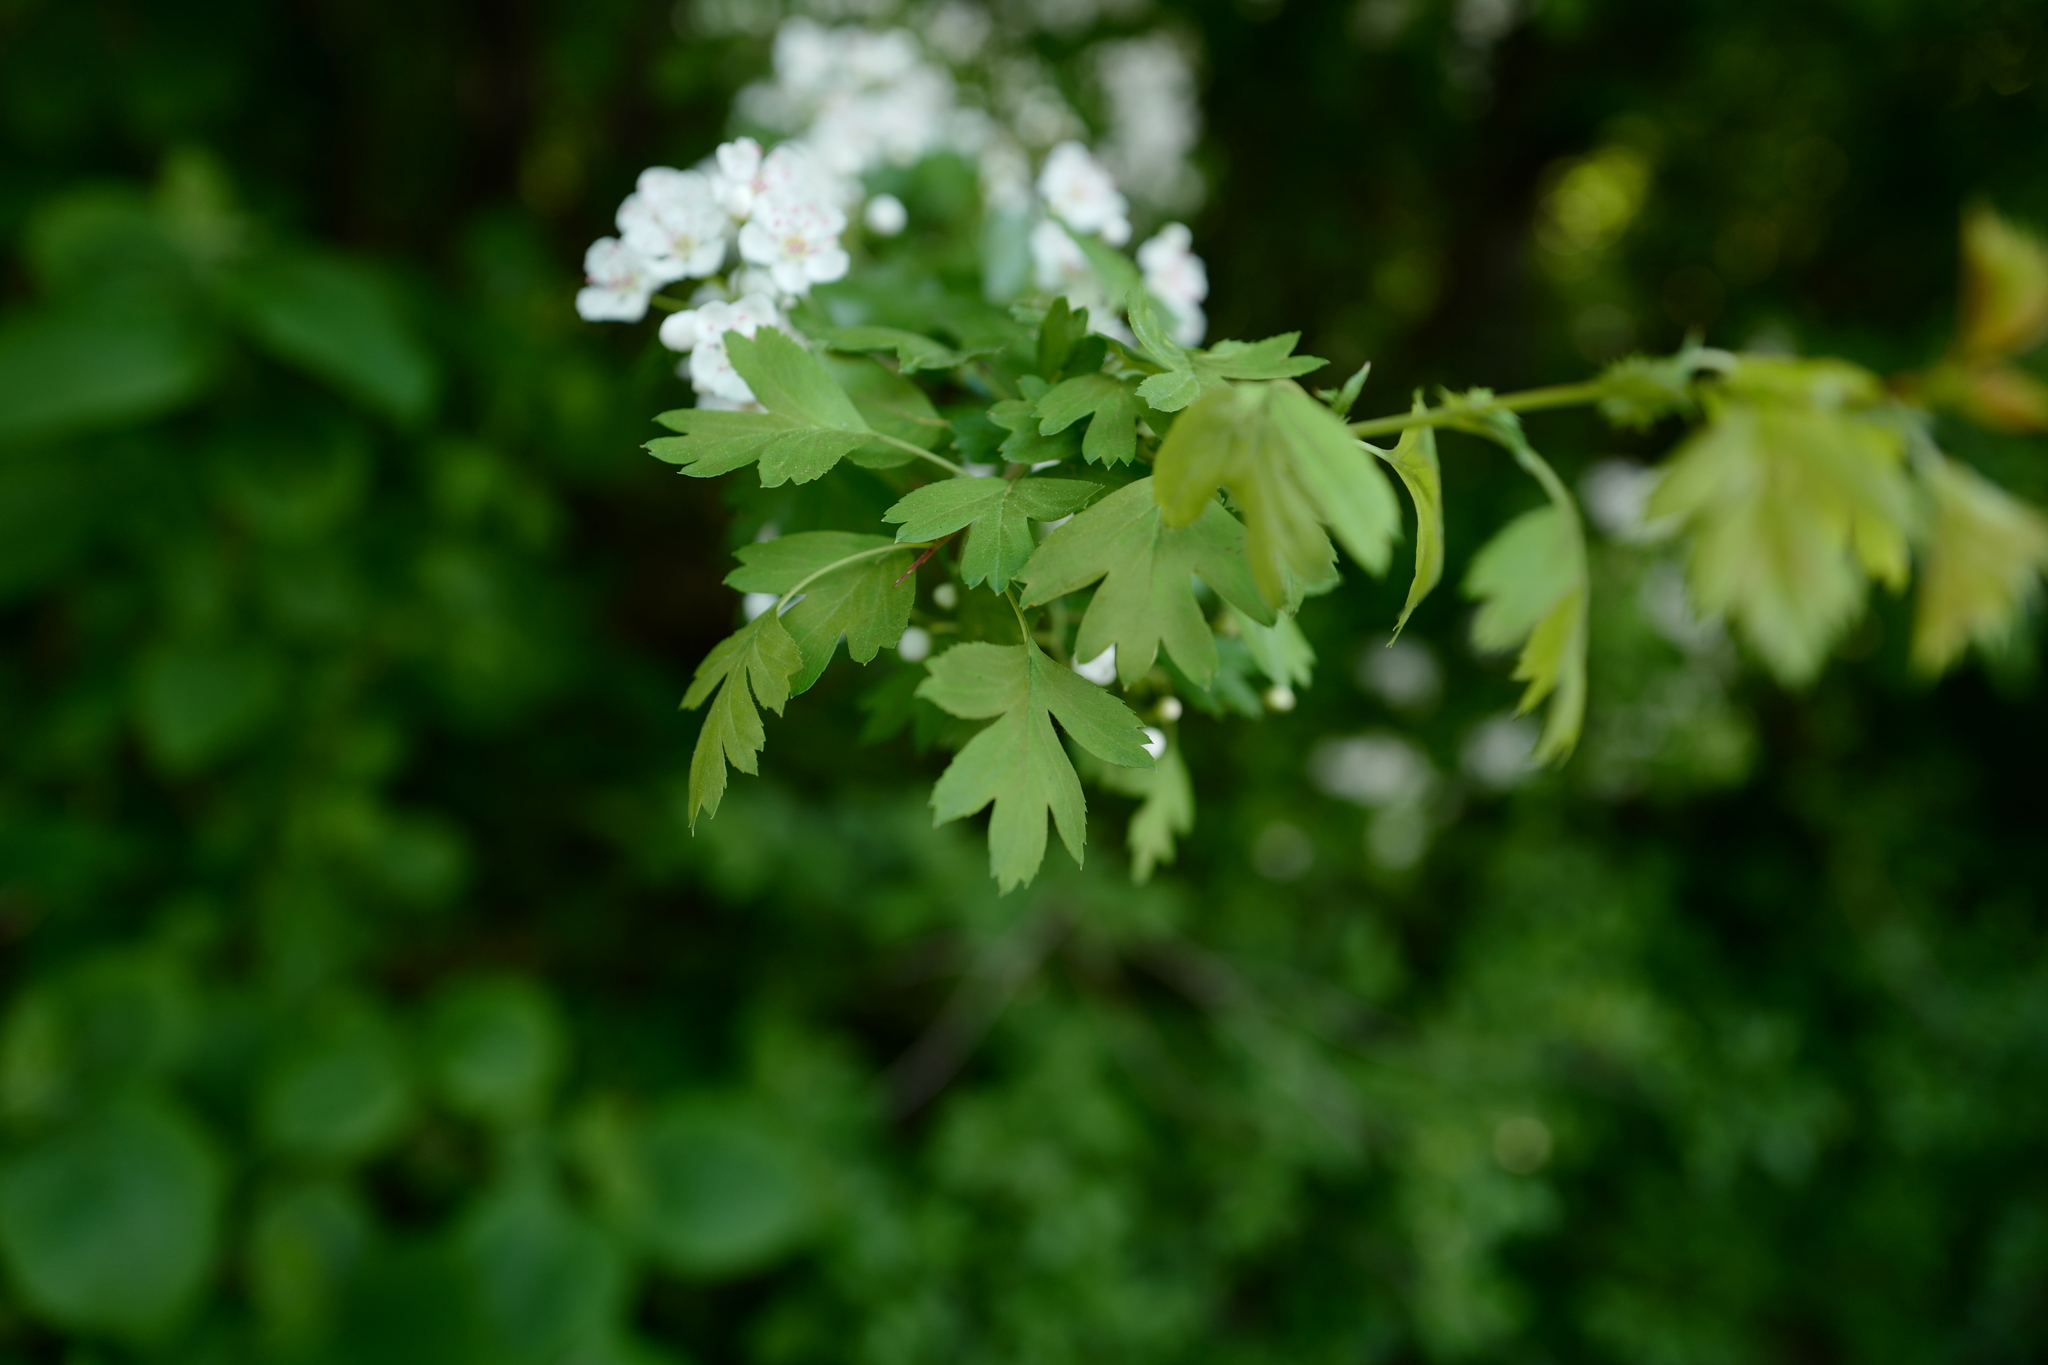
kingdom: Plantae
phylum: Tracheophyta
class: Magnoliopsida
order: Rosales
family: Rosaceae
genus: Crataegus
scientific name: Crataegus monogyna
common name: Hawthorn
